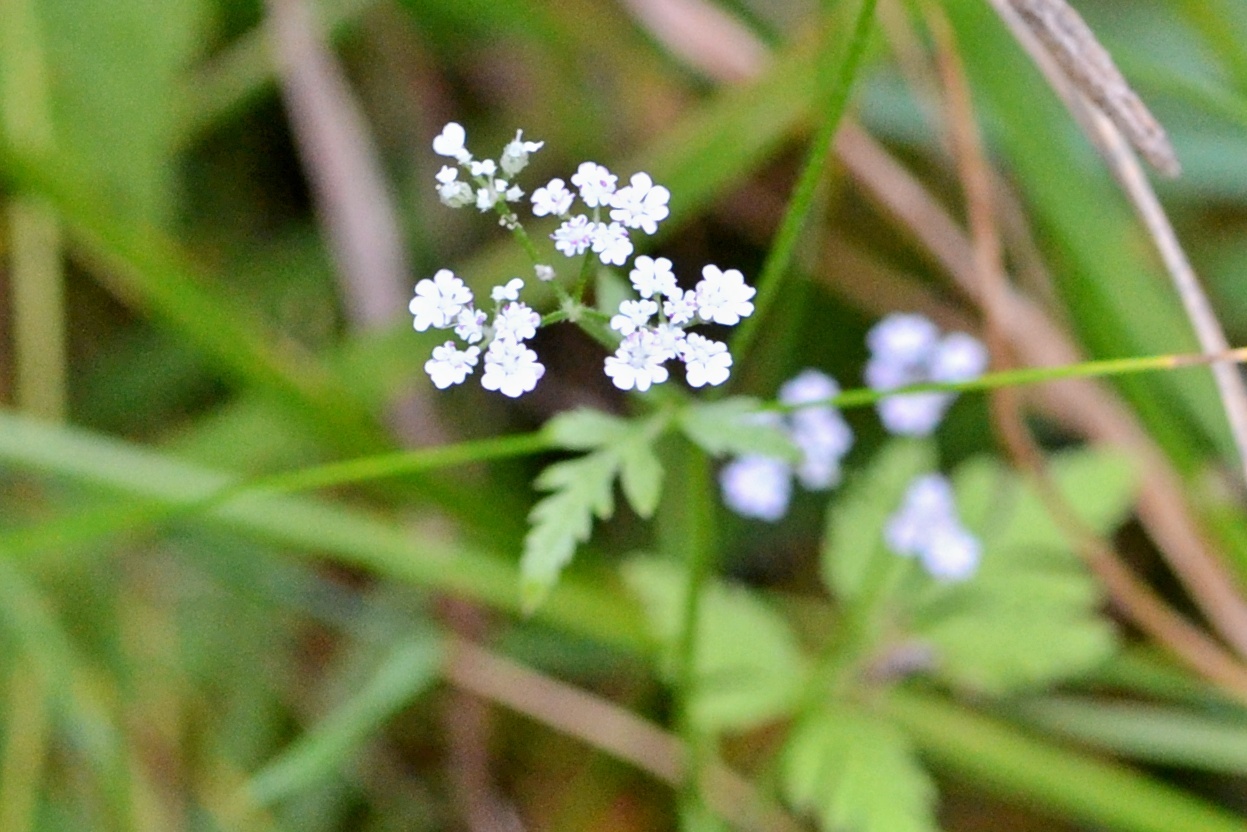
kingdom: Plantae
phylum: Tracheophyta
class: Magnoliopsida
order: Apiales
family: Apiaceae
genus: Torilis
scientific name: Torilis japonica
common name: Upright hedge-parsley
